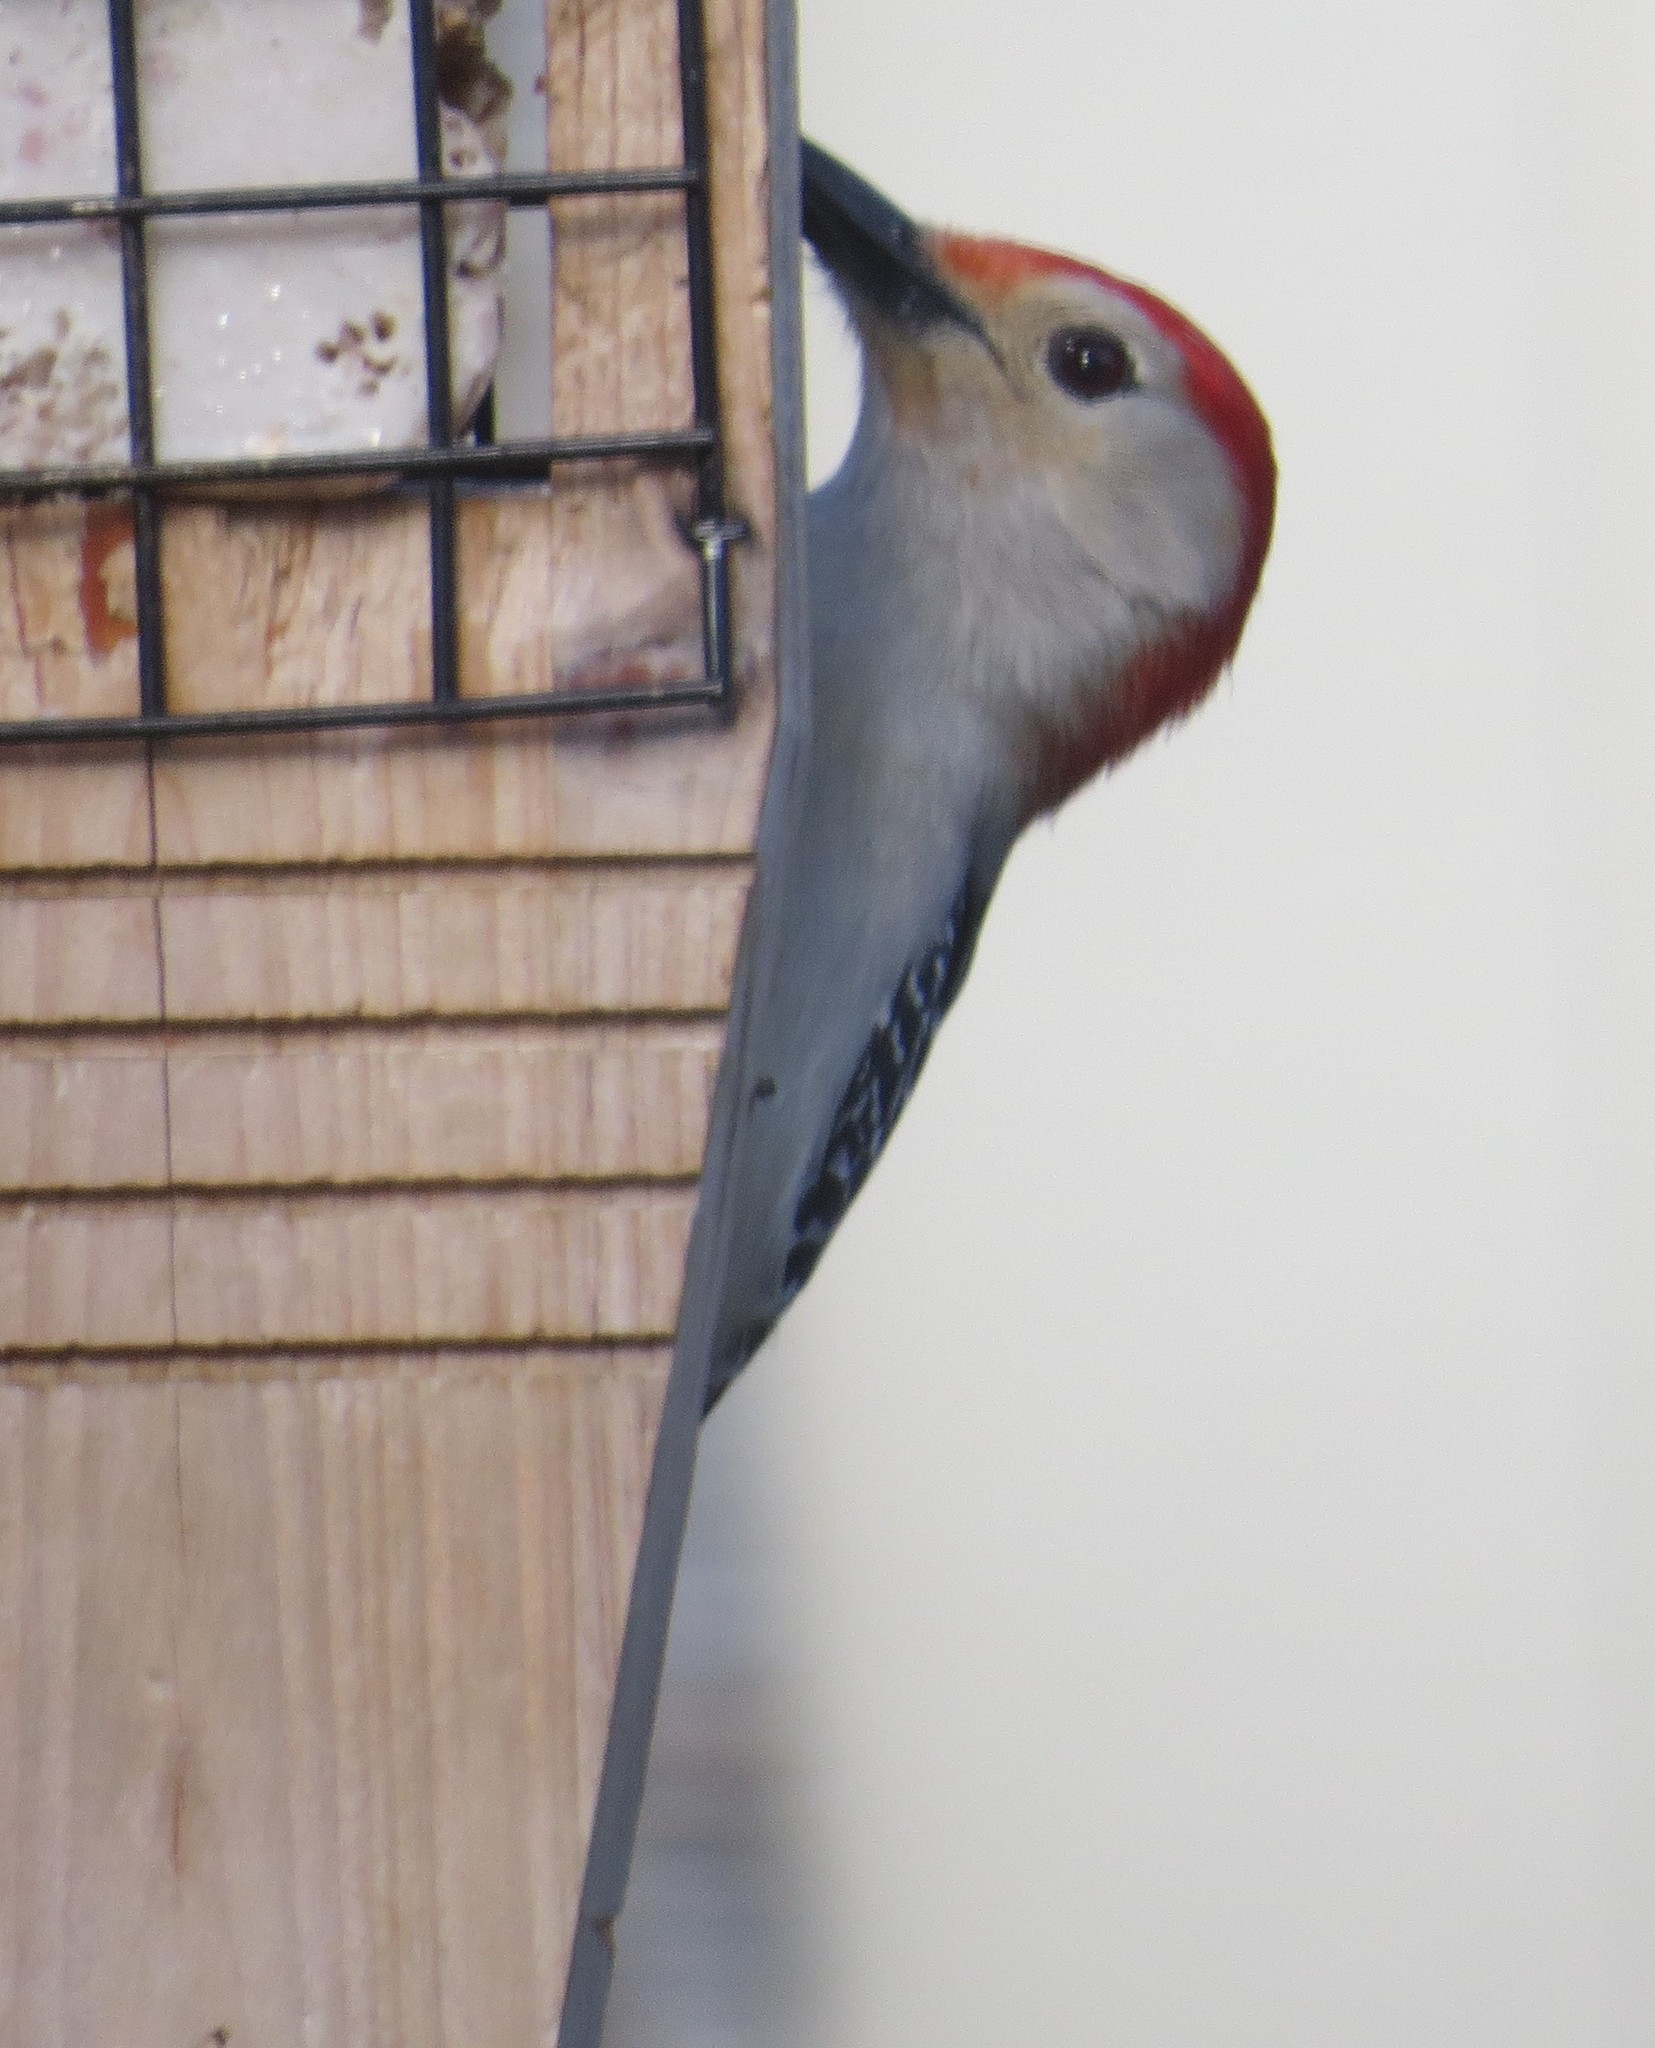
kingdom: Animalia
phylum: Chordata
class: Aves
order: Piciformes
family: Picidae
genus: Melanerpes
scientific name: Melanerpes carolinus
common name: Red-bellied woodpecker
